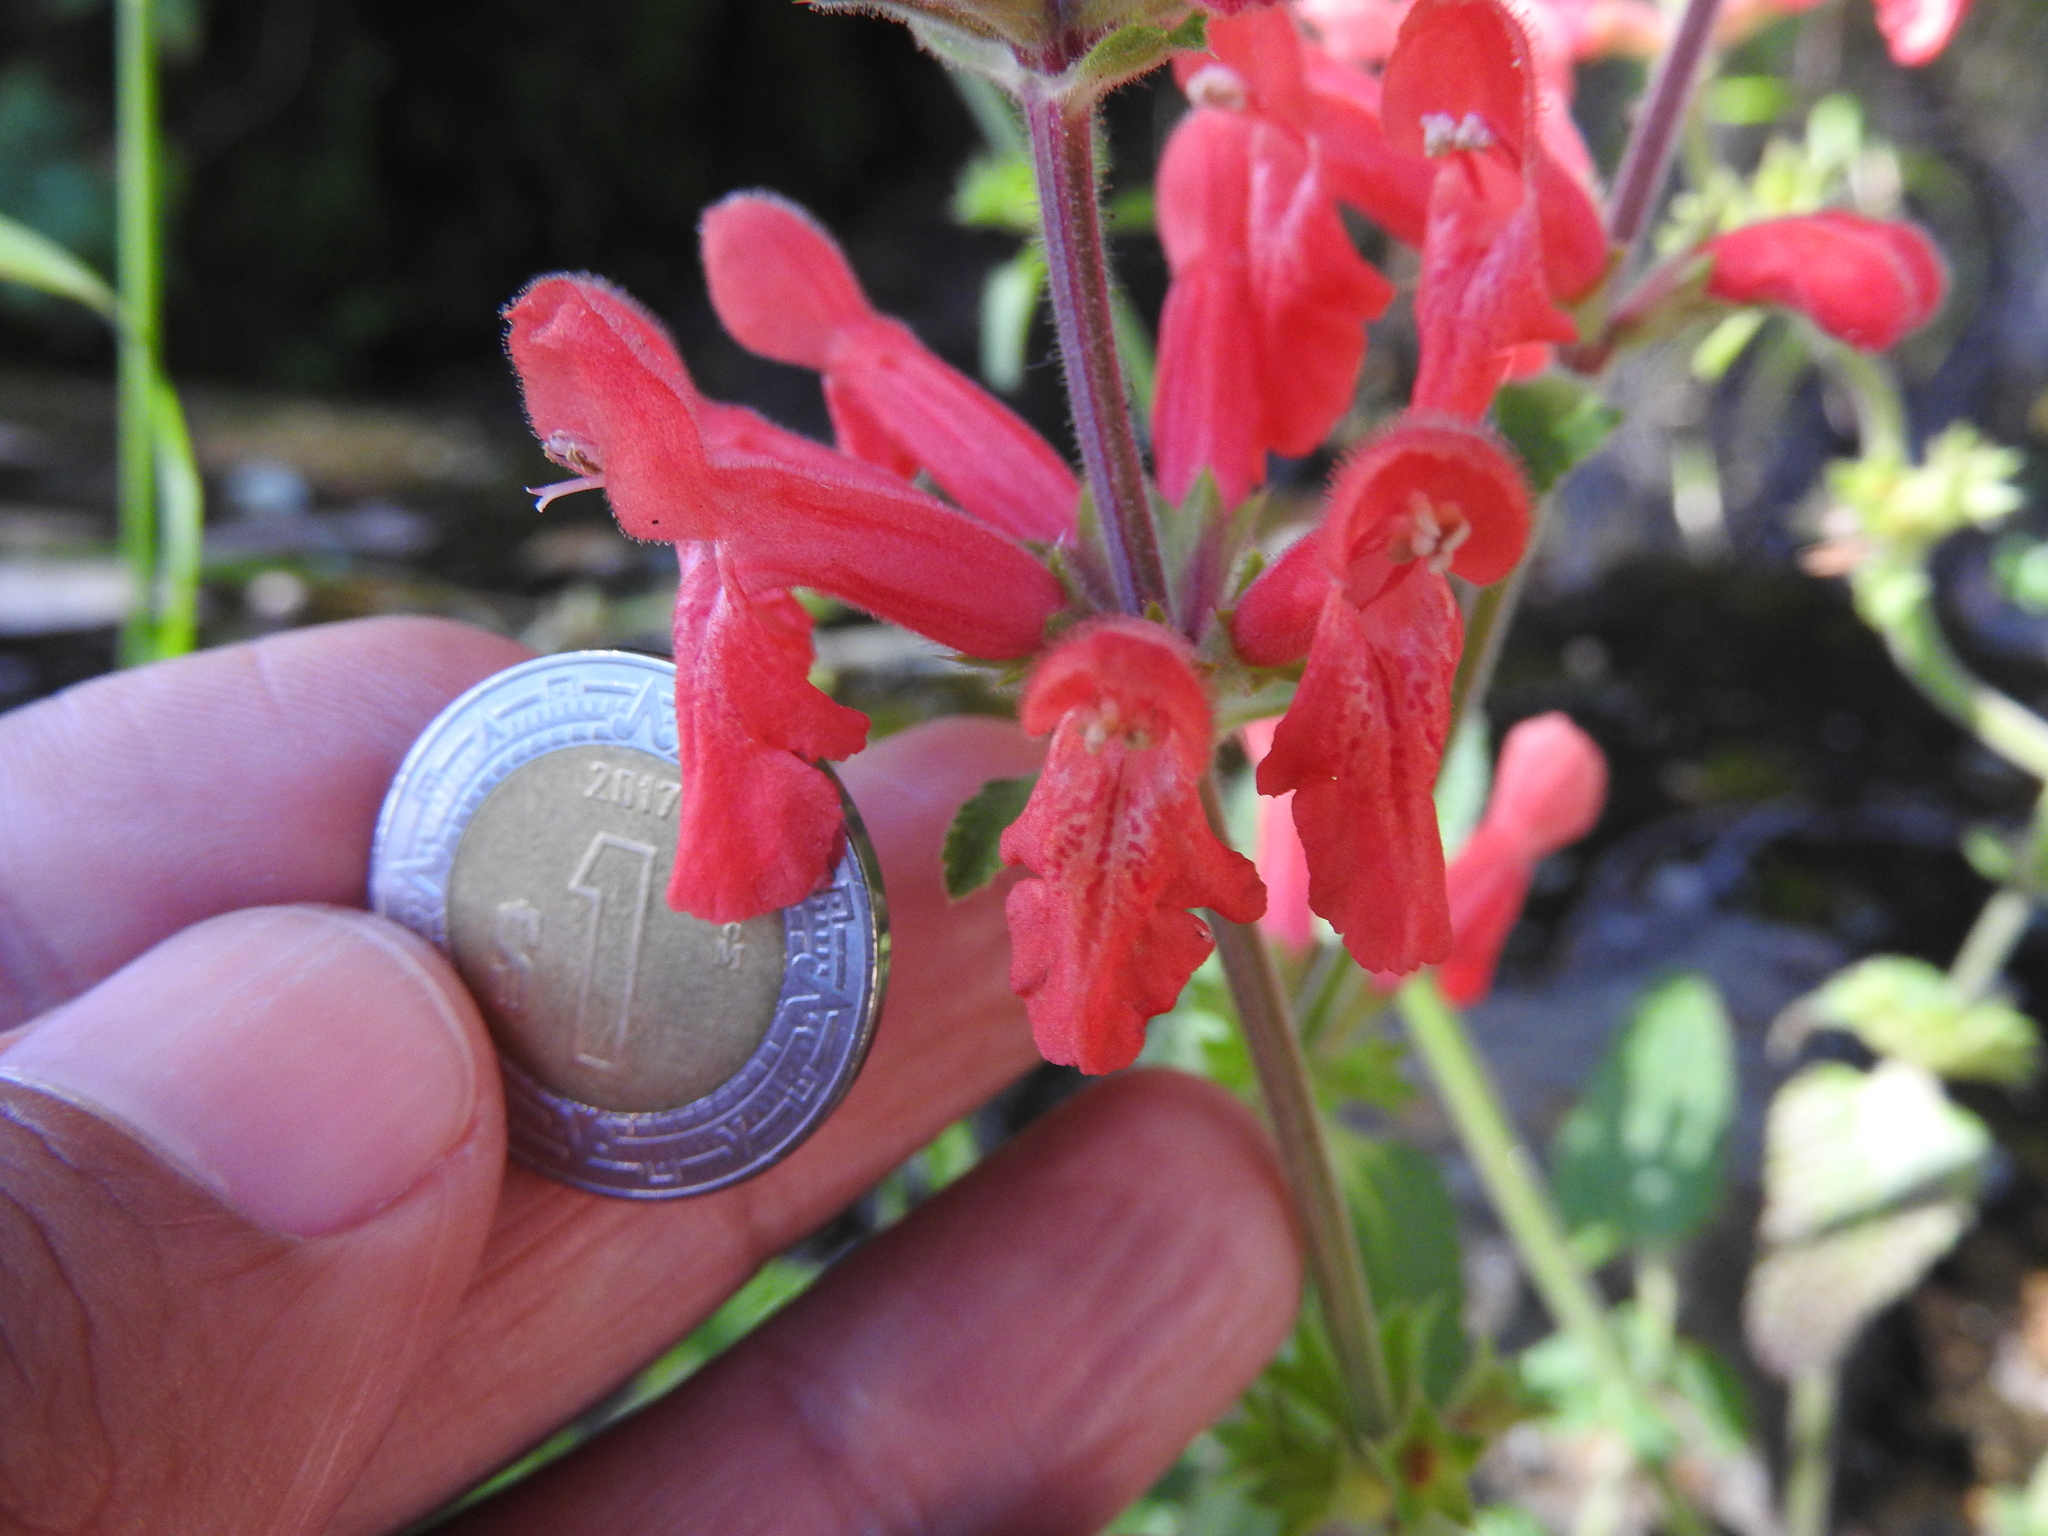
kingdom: Plantae
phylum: Tracheophyta
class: Magnoliopsida
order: Lamiales
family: Lamiaceae
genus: Stachys
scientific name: Stachys coccinea
